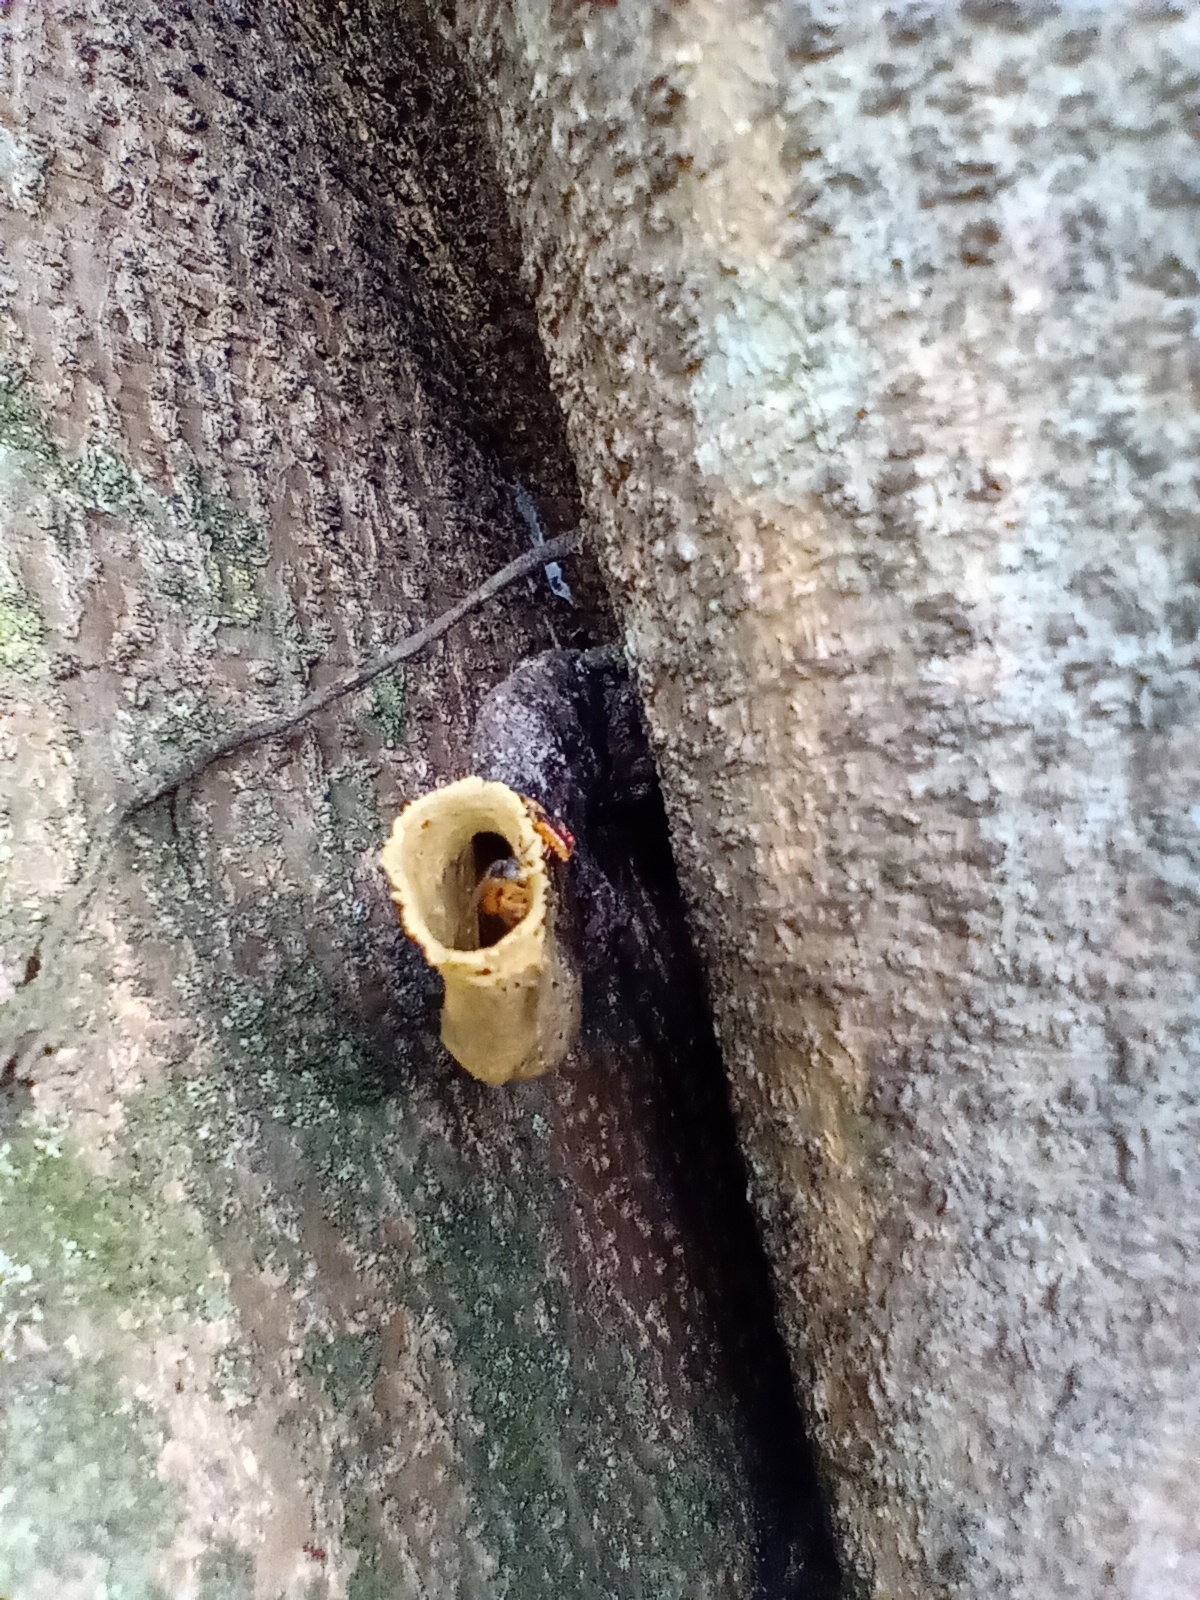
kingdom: Animalia
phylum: Arthropoda
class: Insecta
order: Hymenoptera
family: Apidae
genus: Tetragonisca
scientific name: Tetragonisca angustula
